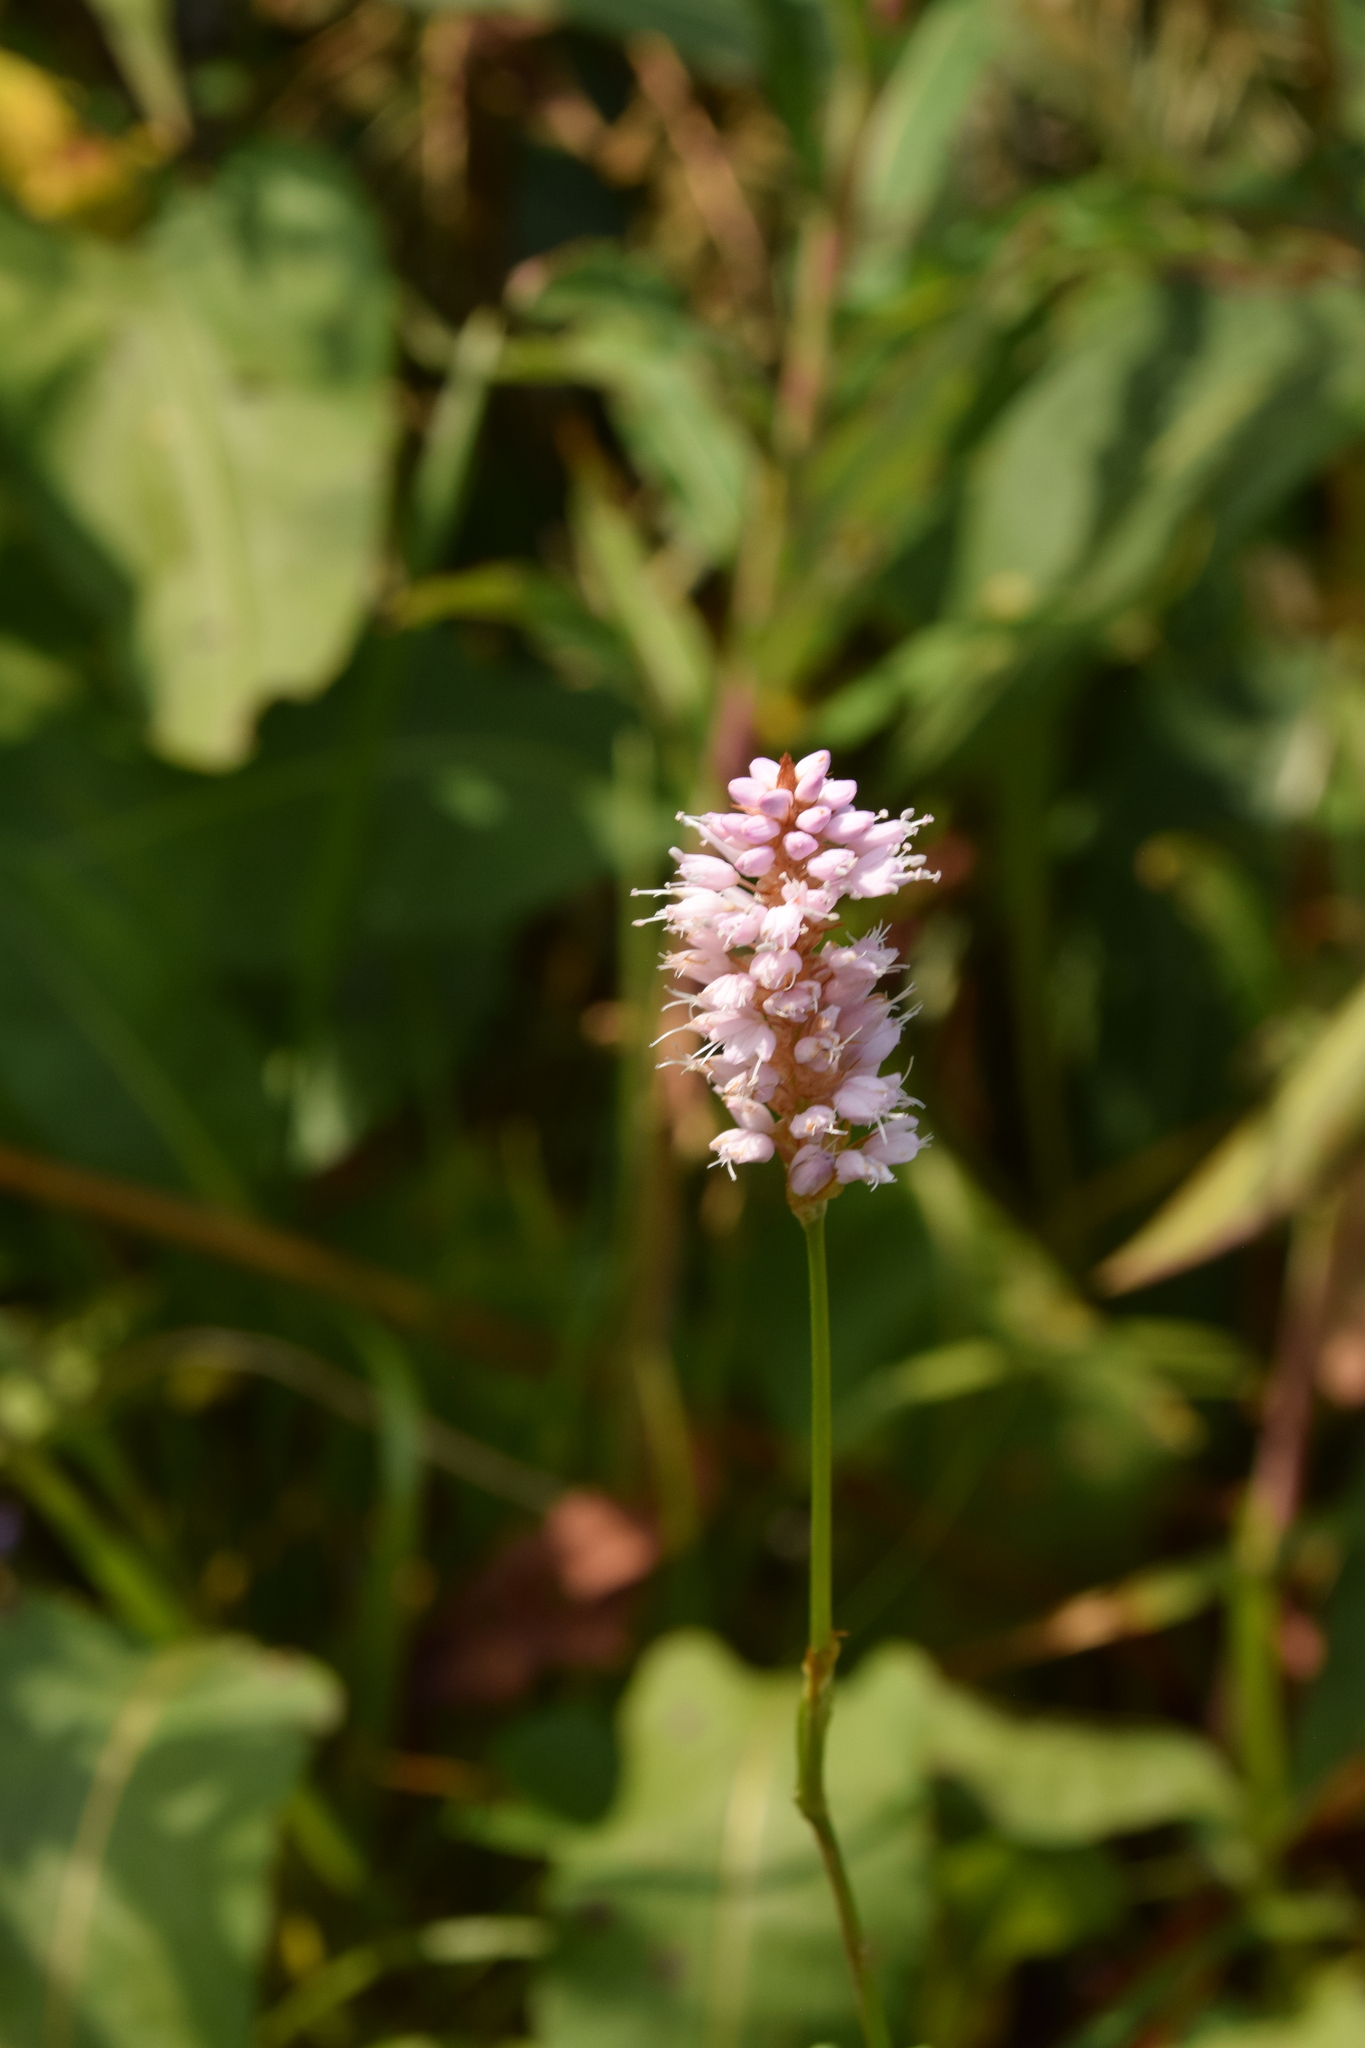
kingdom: Plantae
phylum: Tracheophyta
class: Magnoliopsida
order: Caryophyllales
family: Polygonaceae
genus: Bistorta
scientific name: Bistorta officinalis
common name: Common bistort
